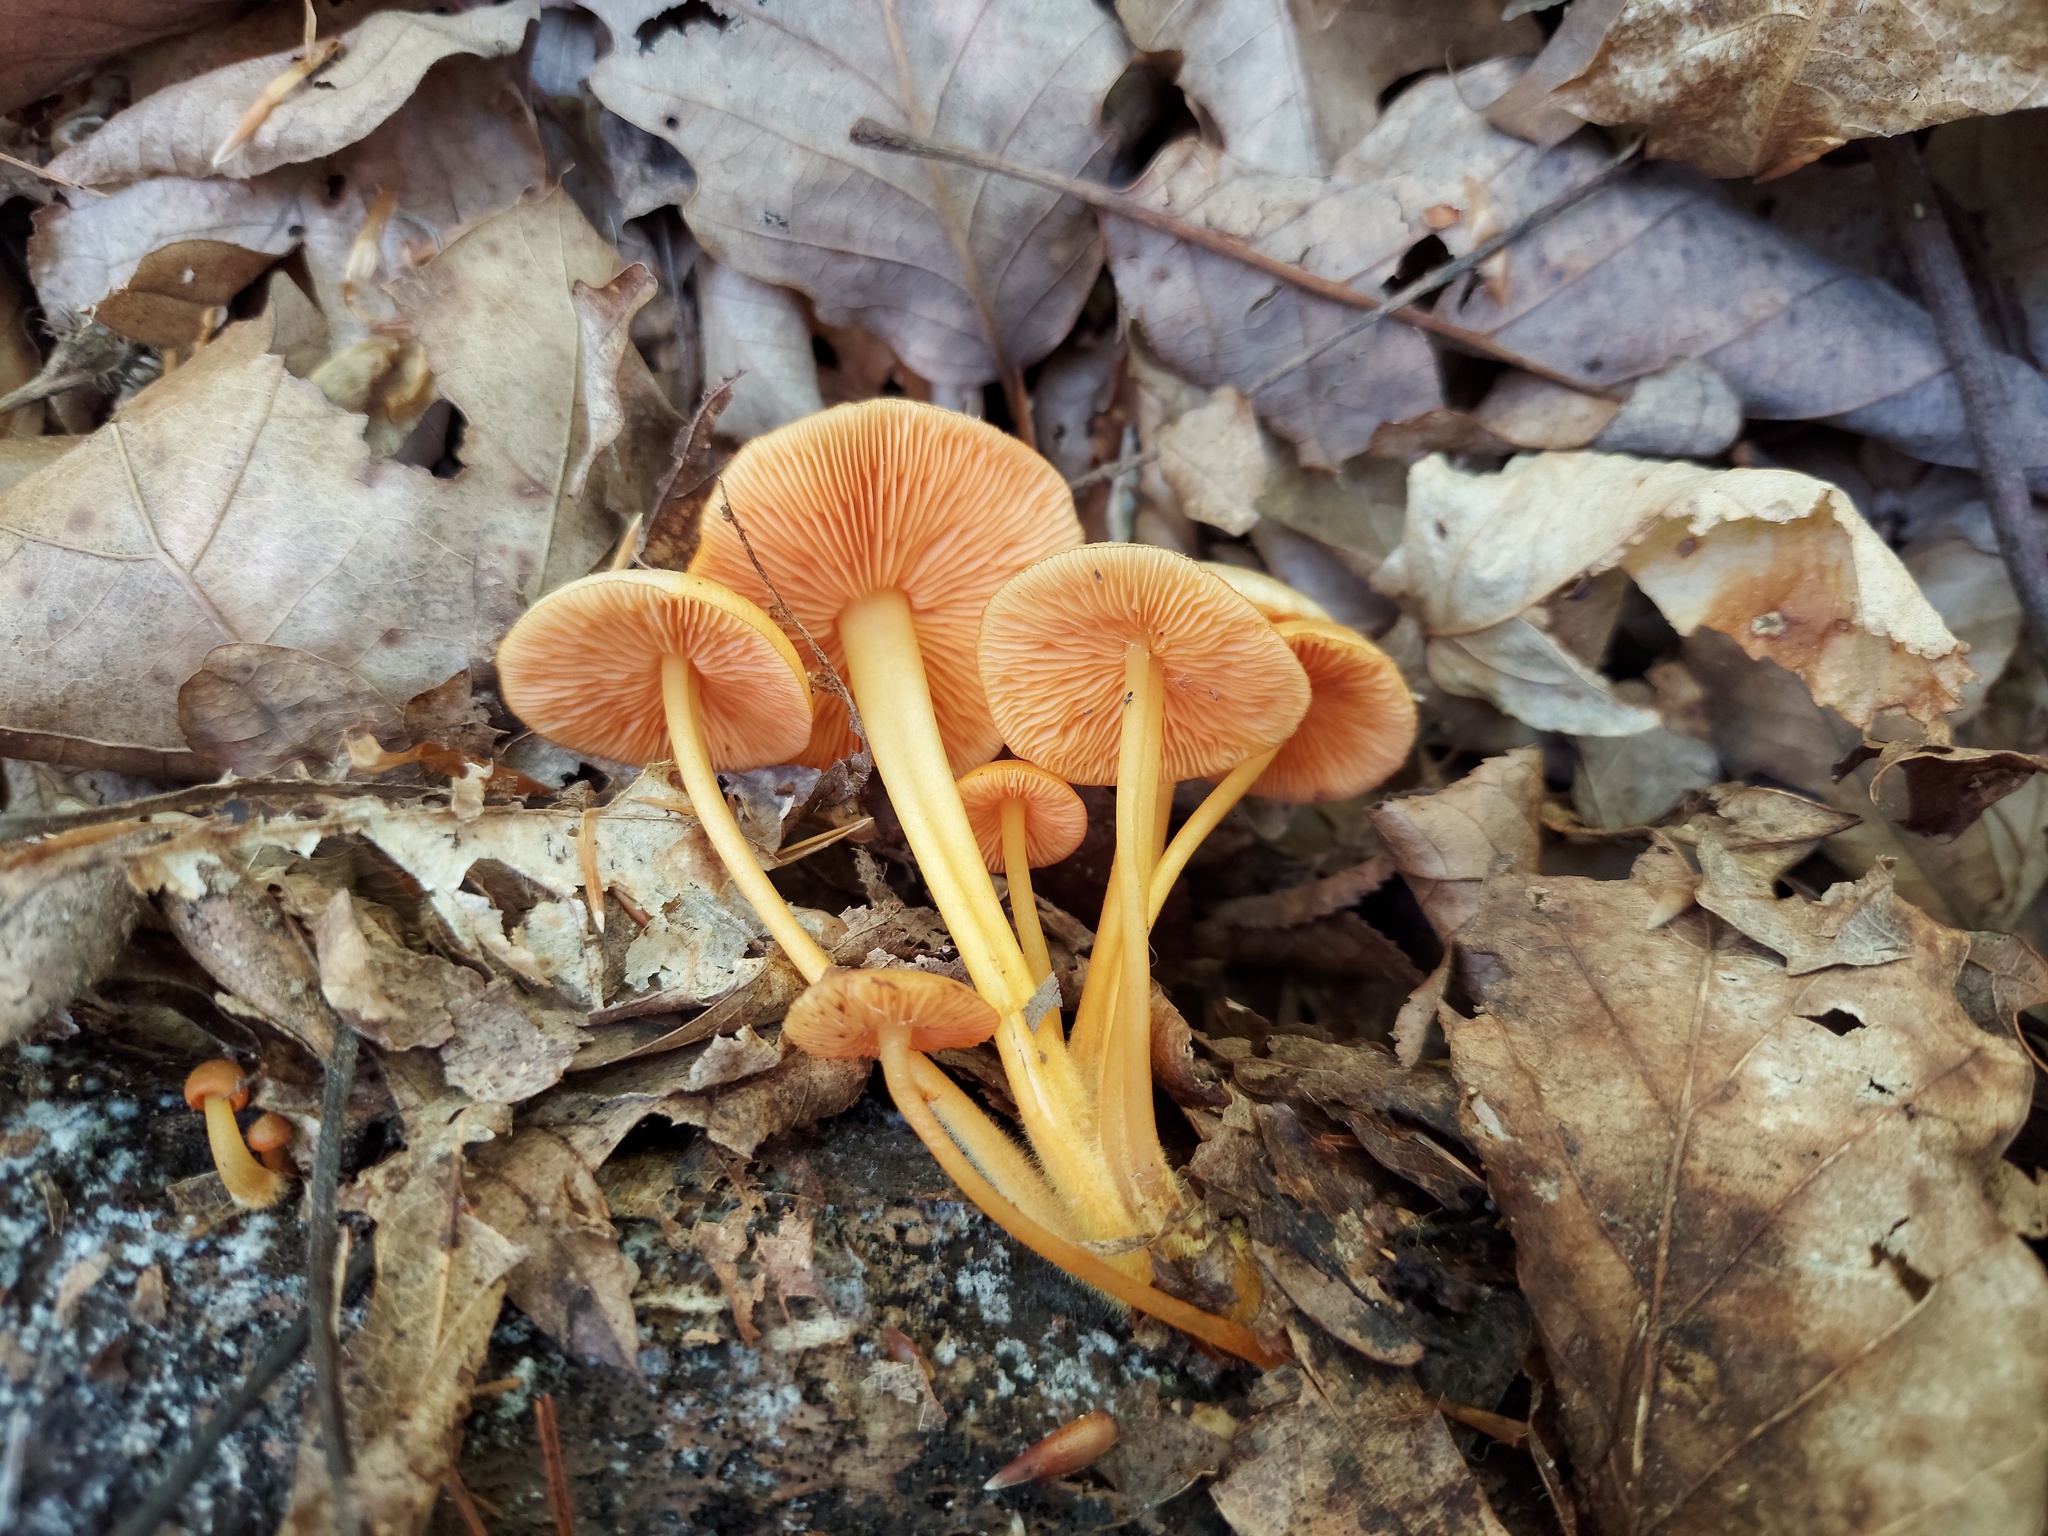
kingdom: Fungi
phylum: Basidiomycota
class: Agaricomycetes
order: Agaricales
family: Mycenaceae
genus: Mycena
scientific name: Mycena leaiana
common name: Orange mycena
